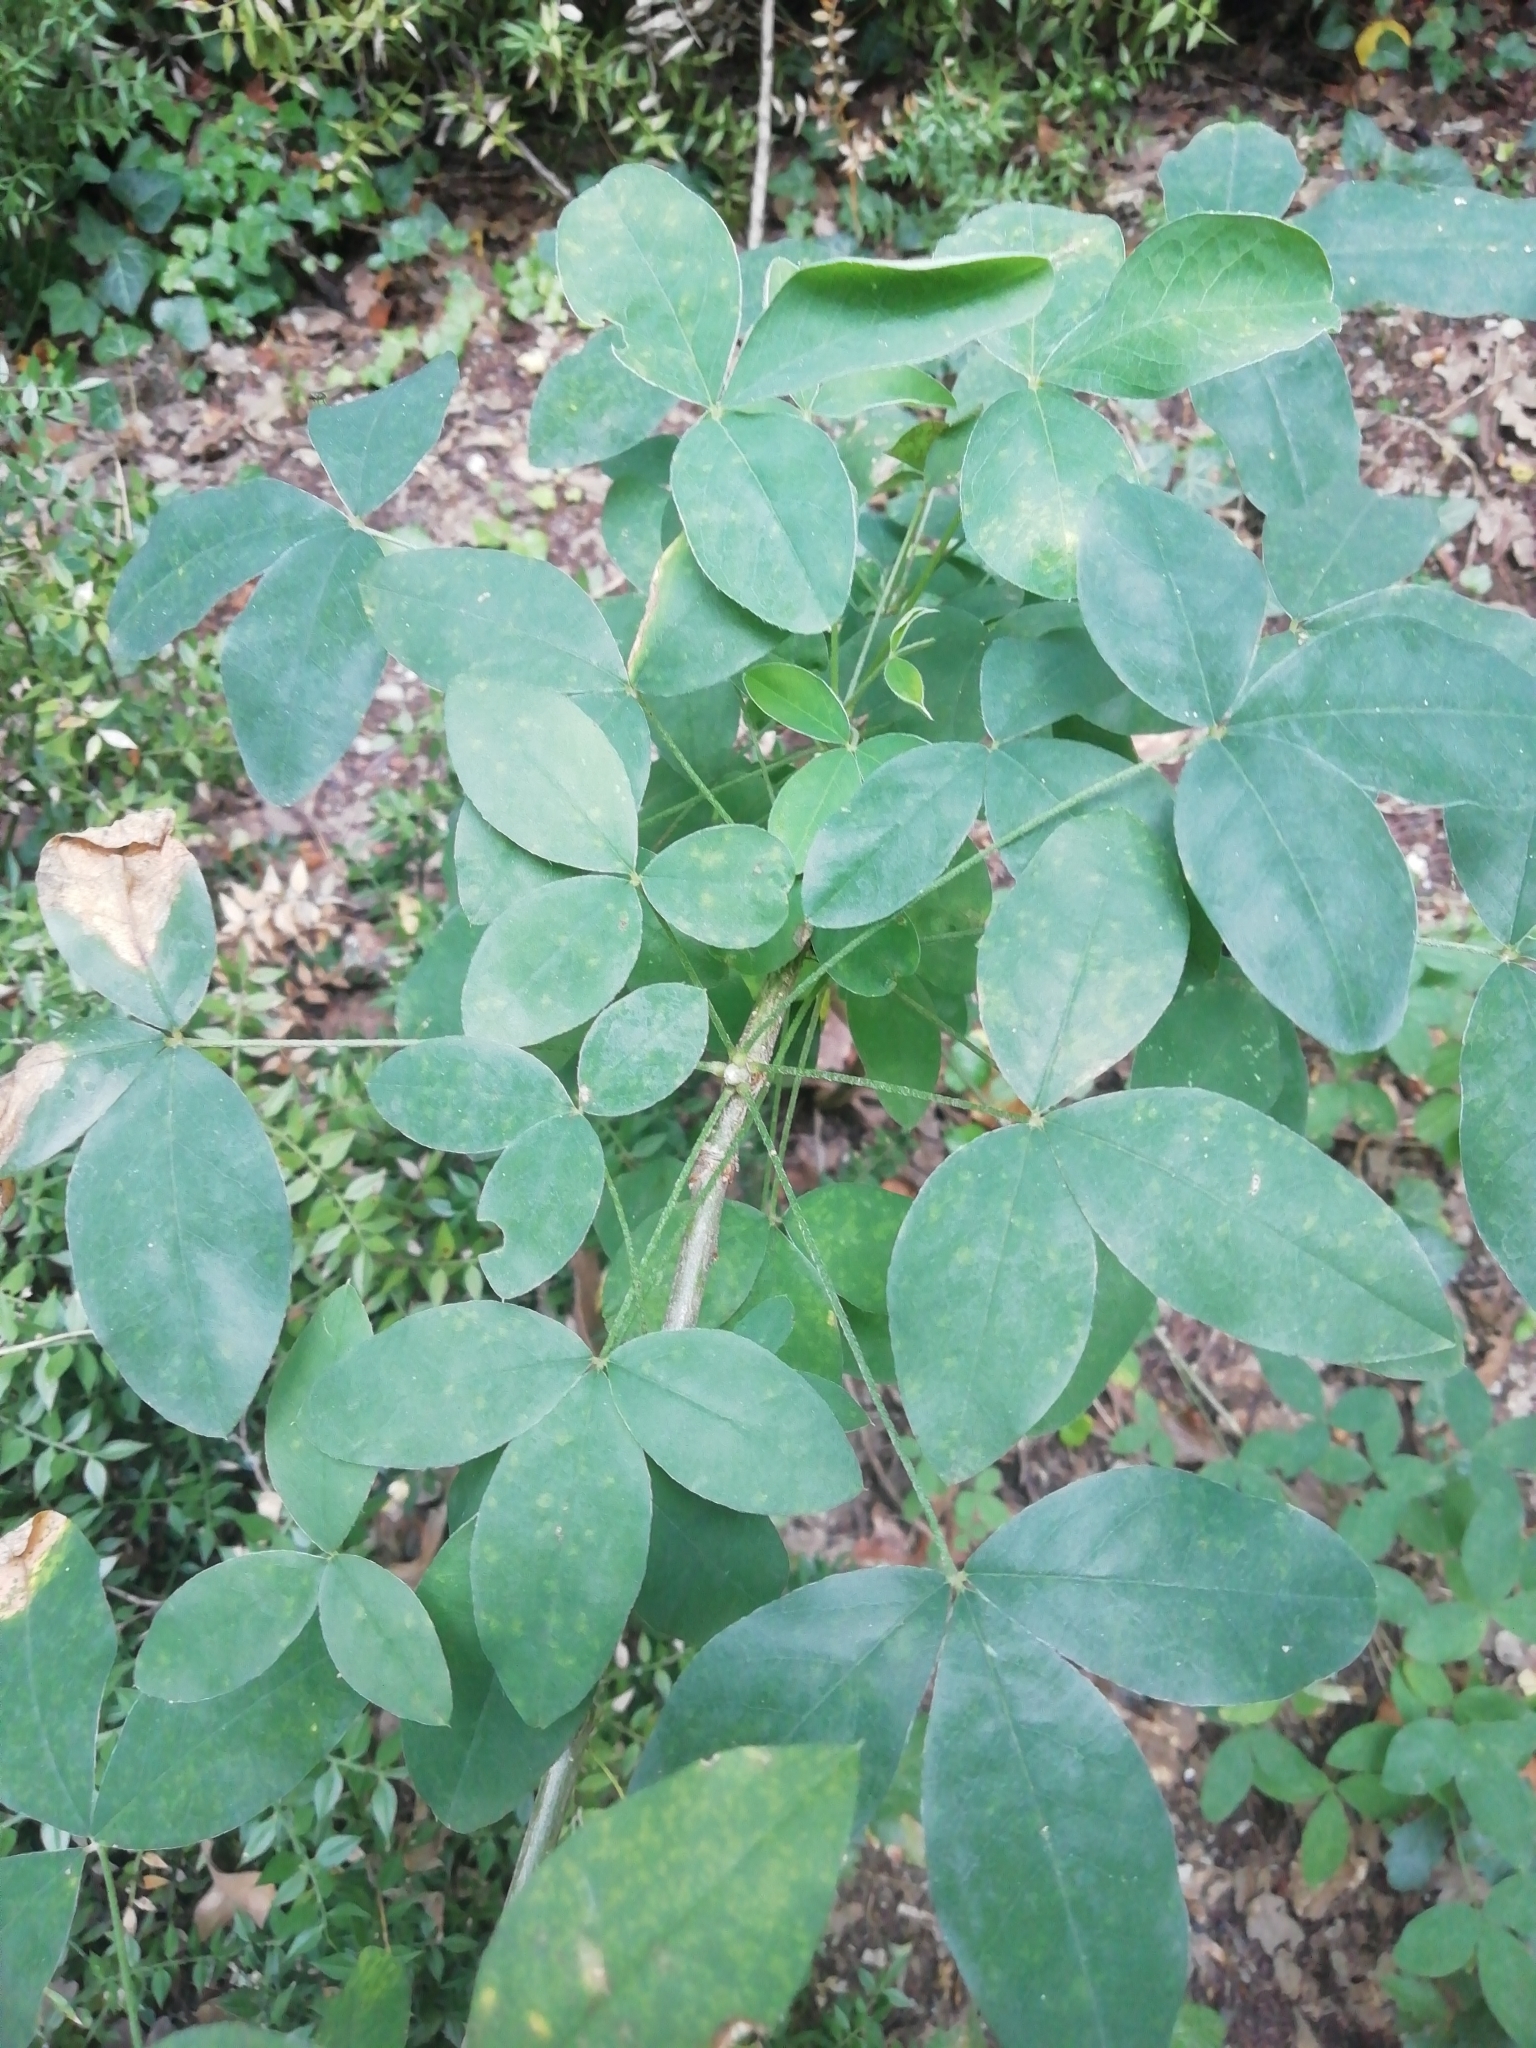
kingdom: Plantae
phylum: Tracheophyta
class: Magnoliopsida
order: Fabales
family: Fabaceae
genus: Laburnum
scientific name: Laburnum anagyroides
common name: Laburnum
